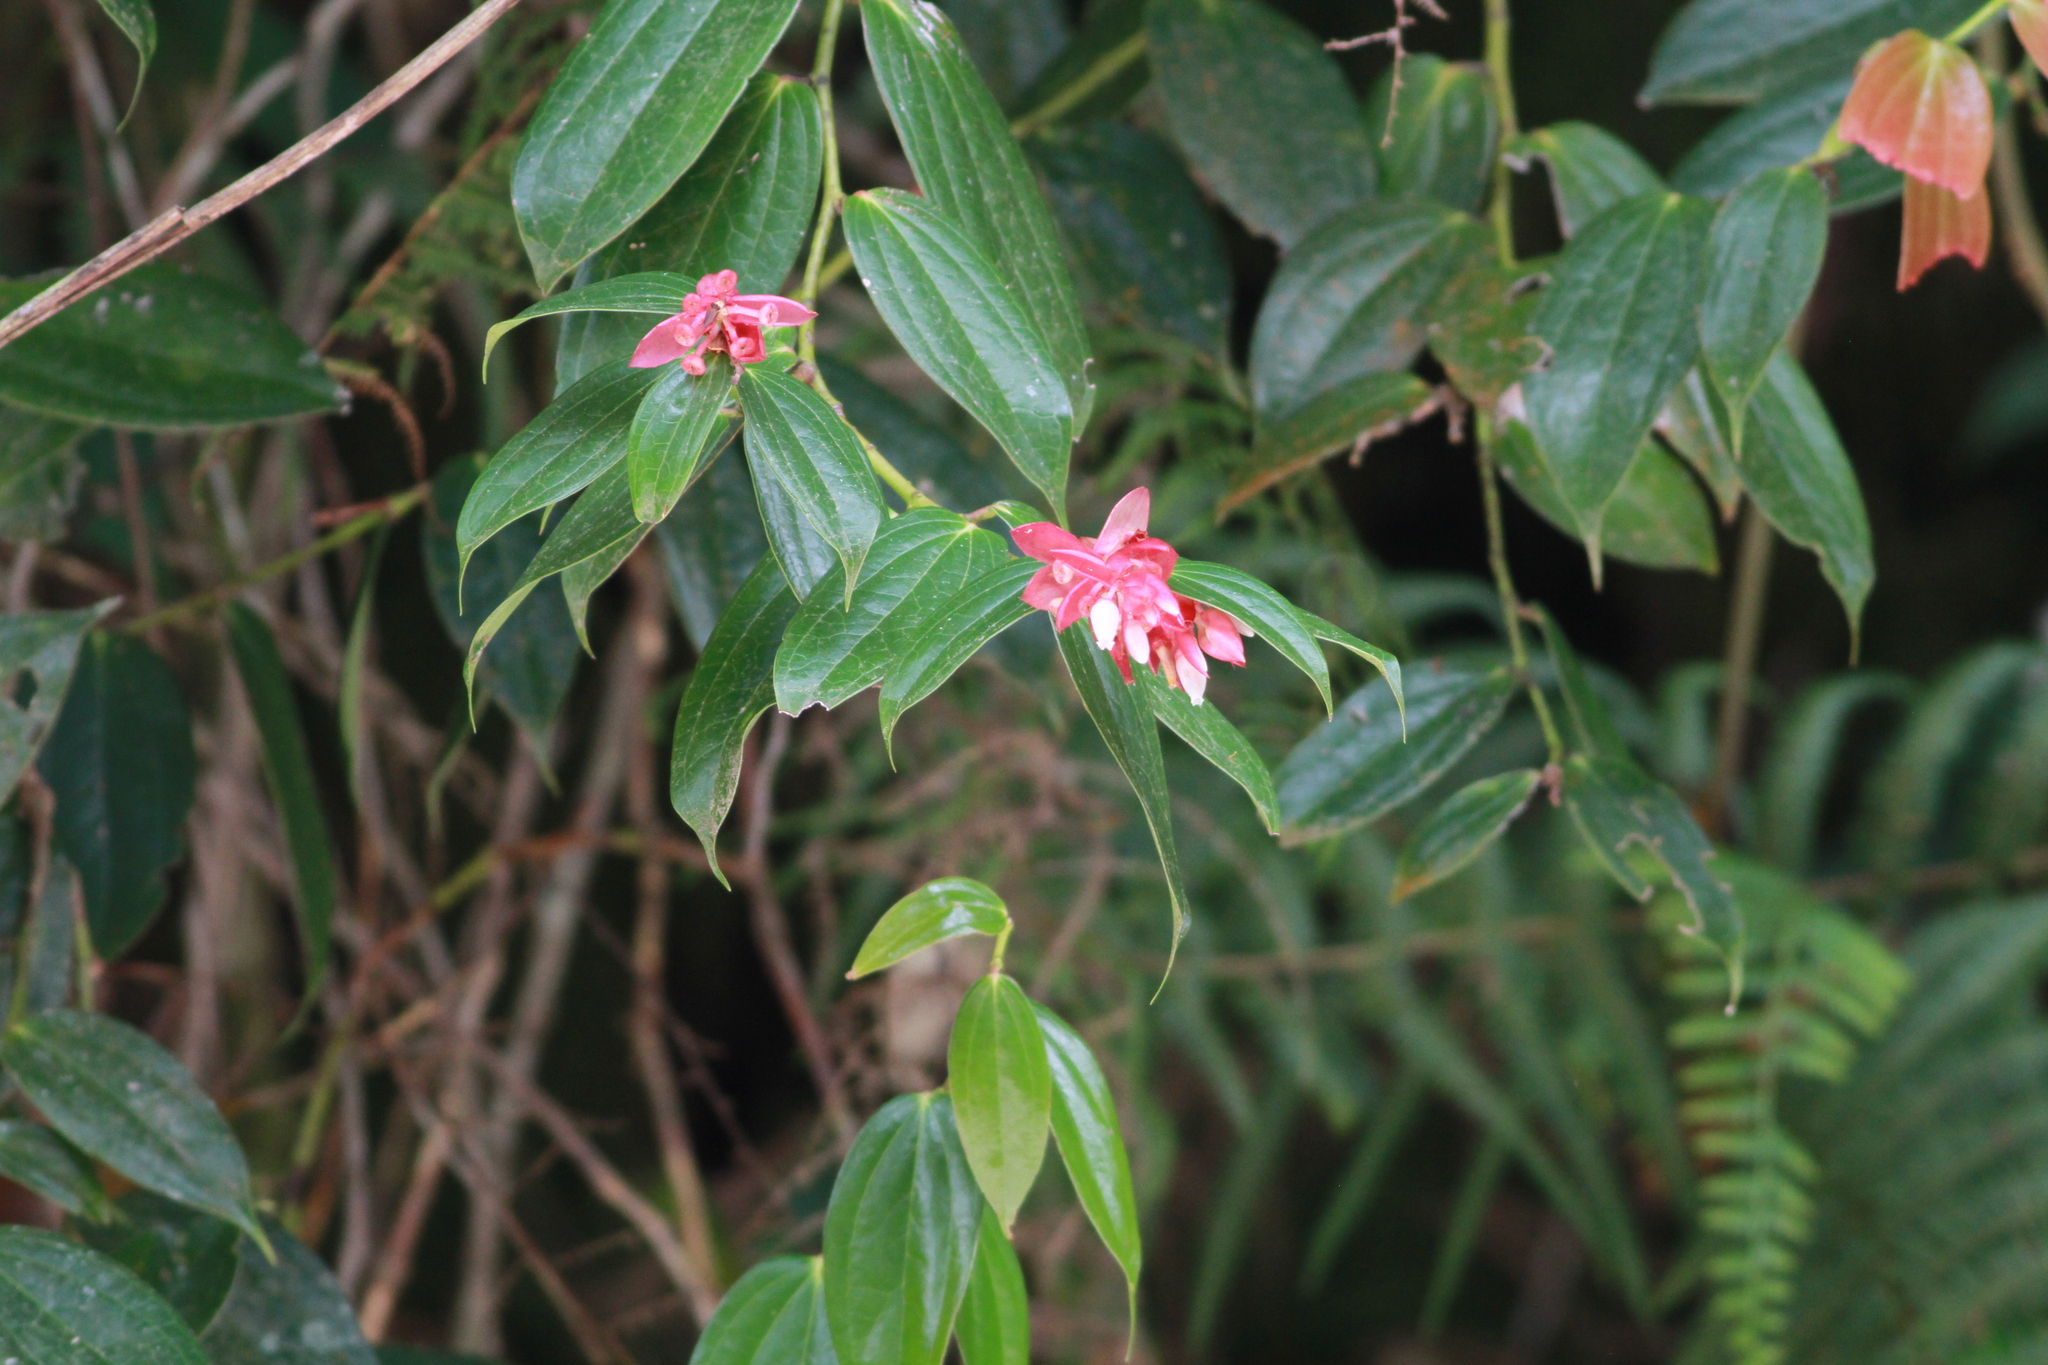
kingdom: Plantae
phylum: Tracheophyta
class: Magnoliopsida
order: Ericales
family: Ericaceae
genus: Cavendishia
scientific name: Cavendishia bracteata
